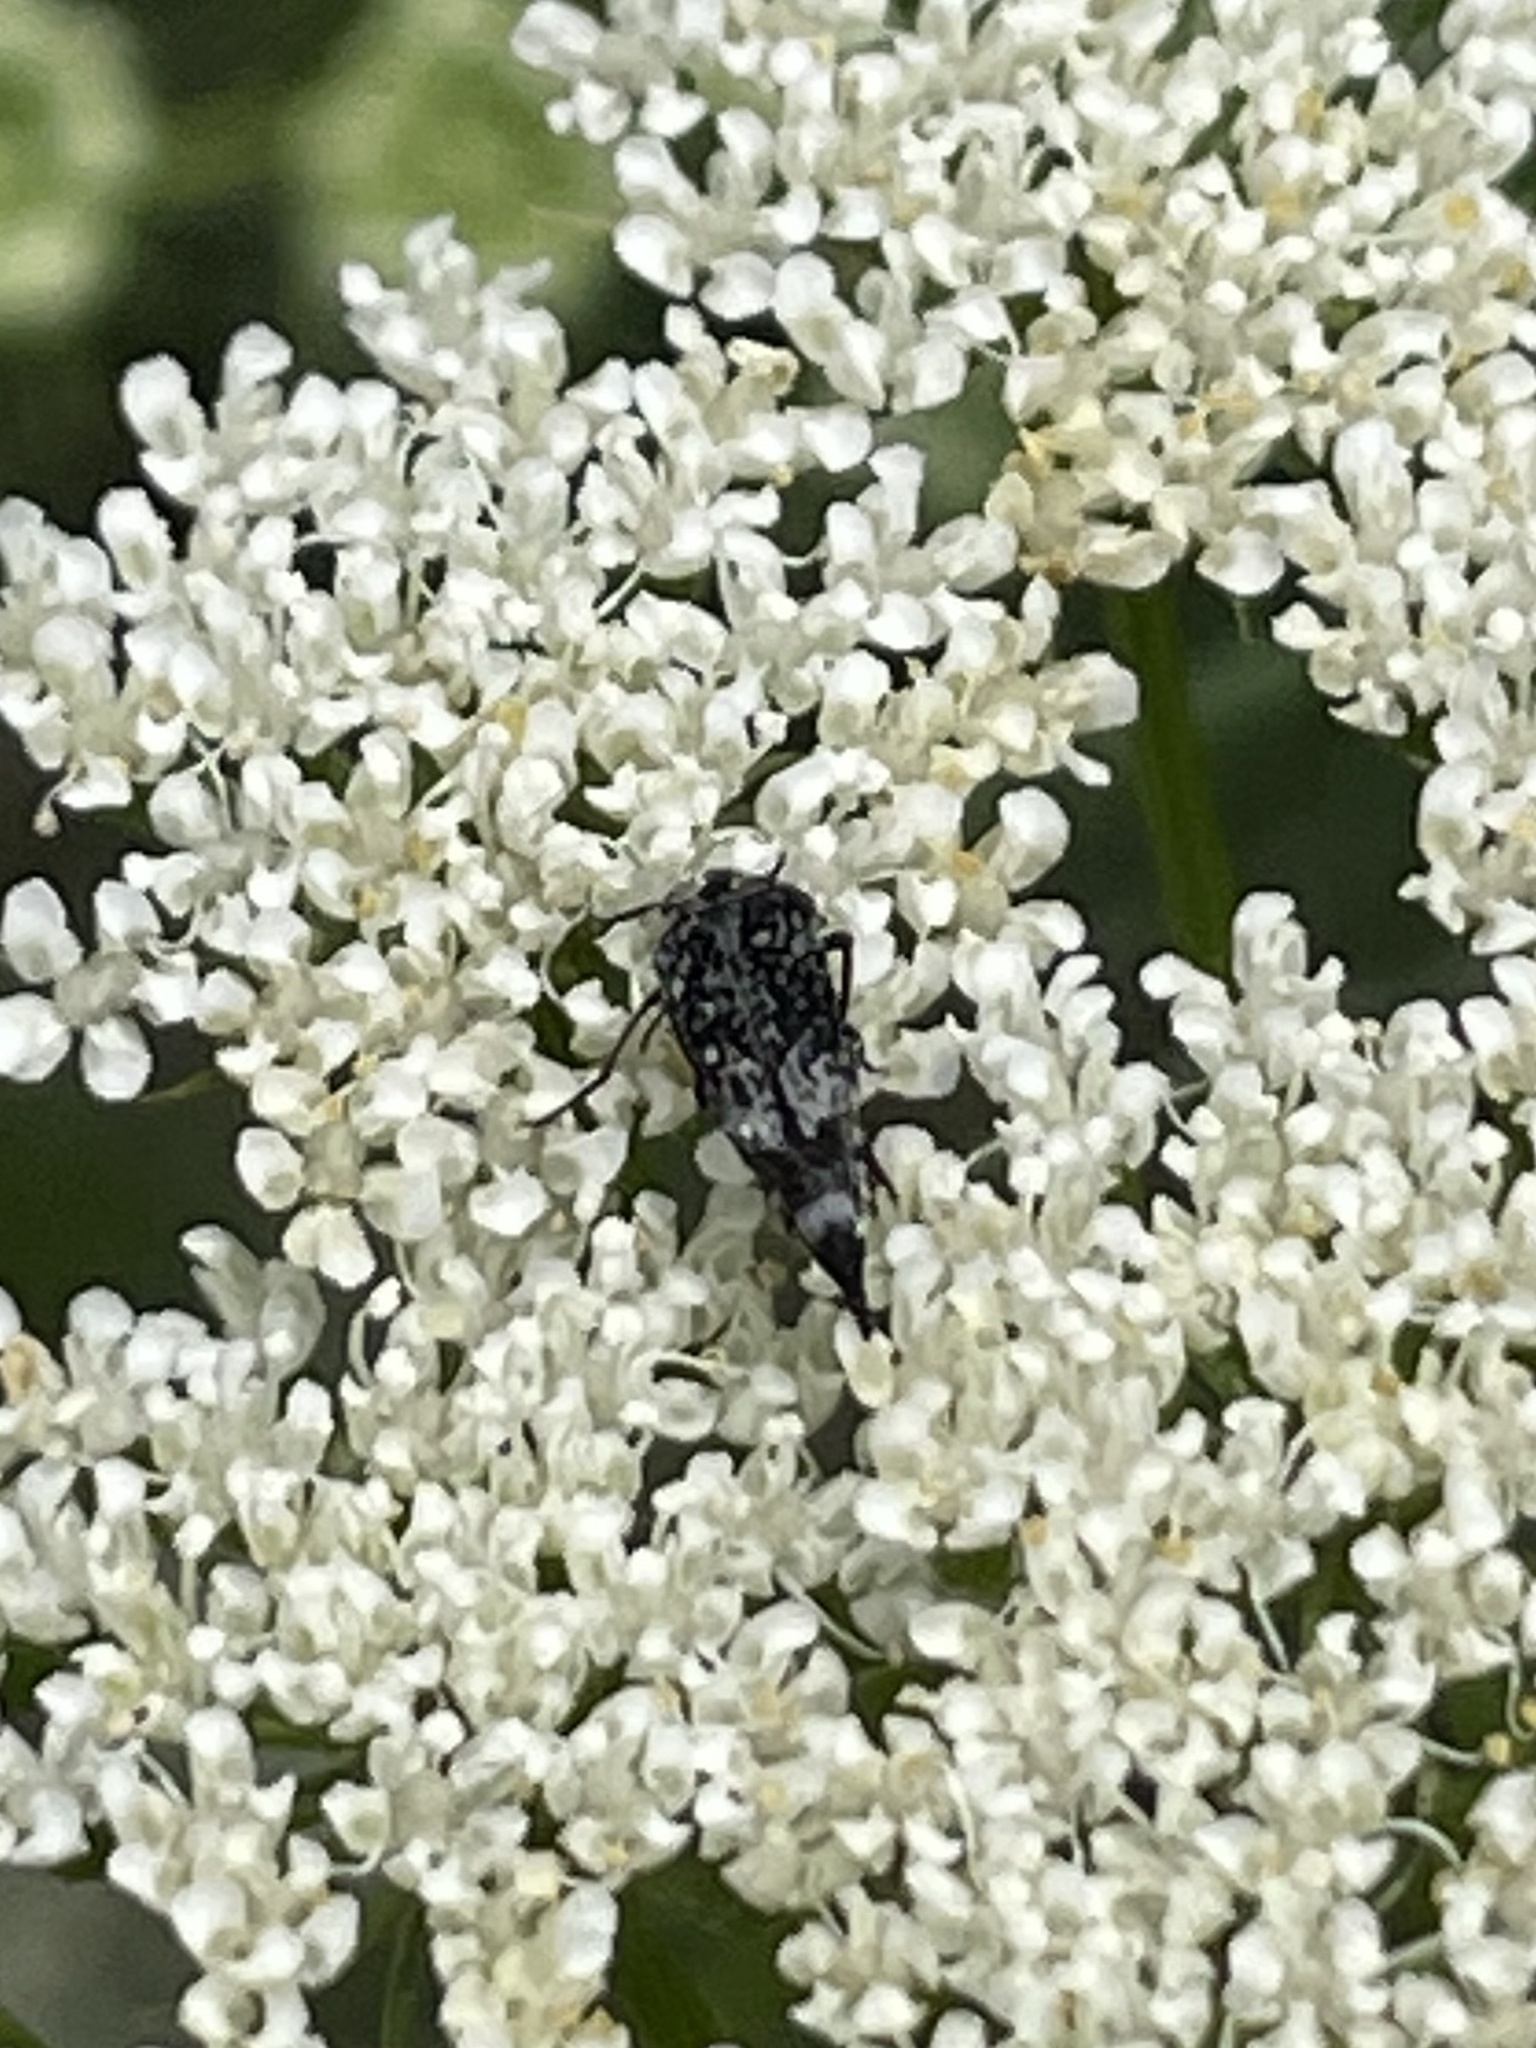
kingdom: Animalia
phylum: Arthropoda
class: Insecta
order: Coleoptera
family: Mordellidae
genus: Mordella
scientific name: Mordella marginata
